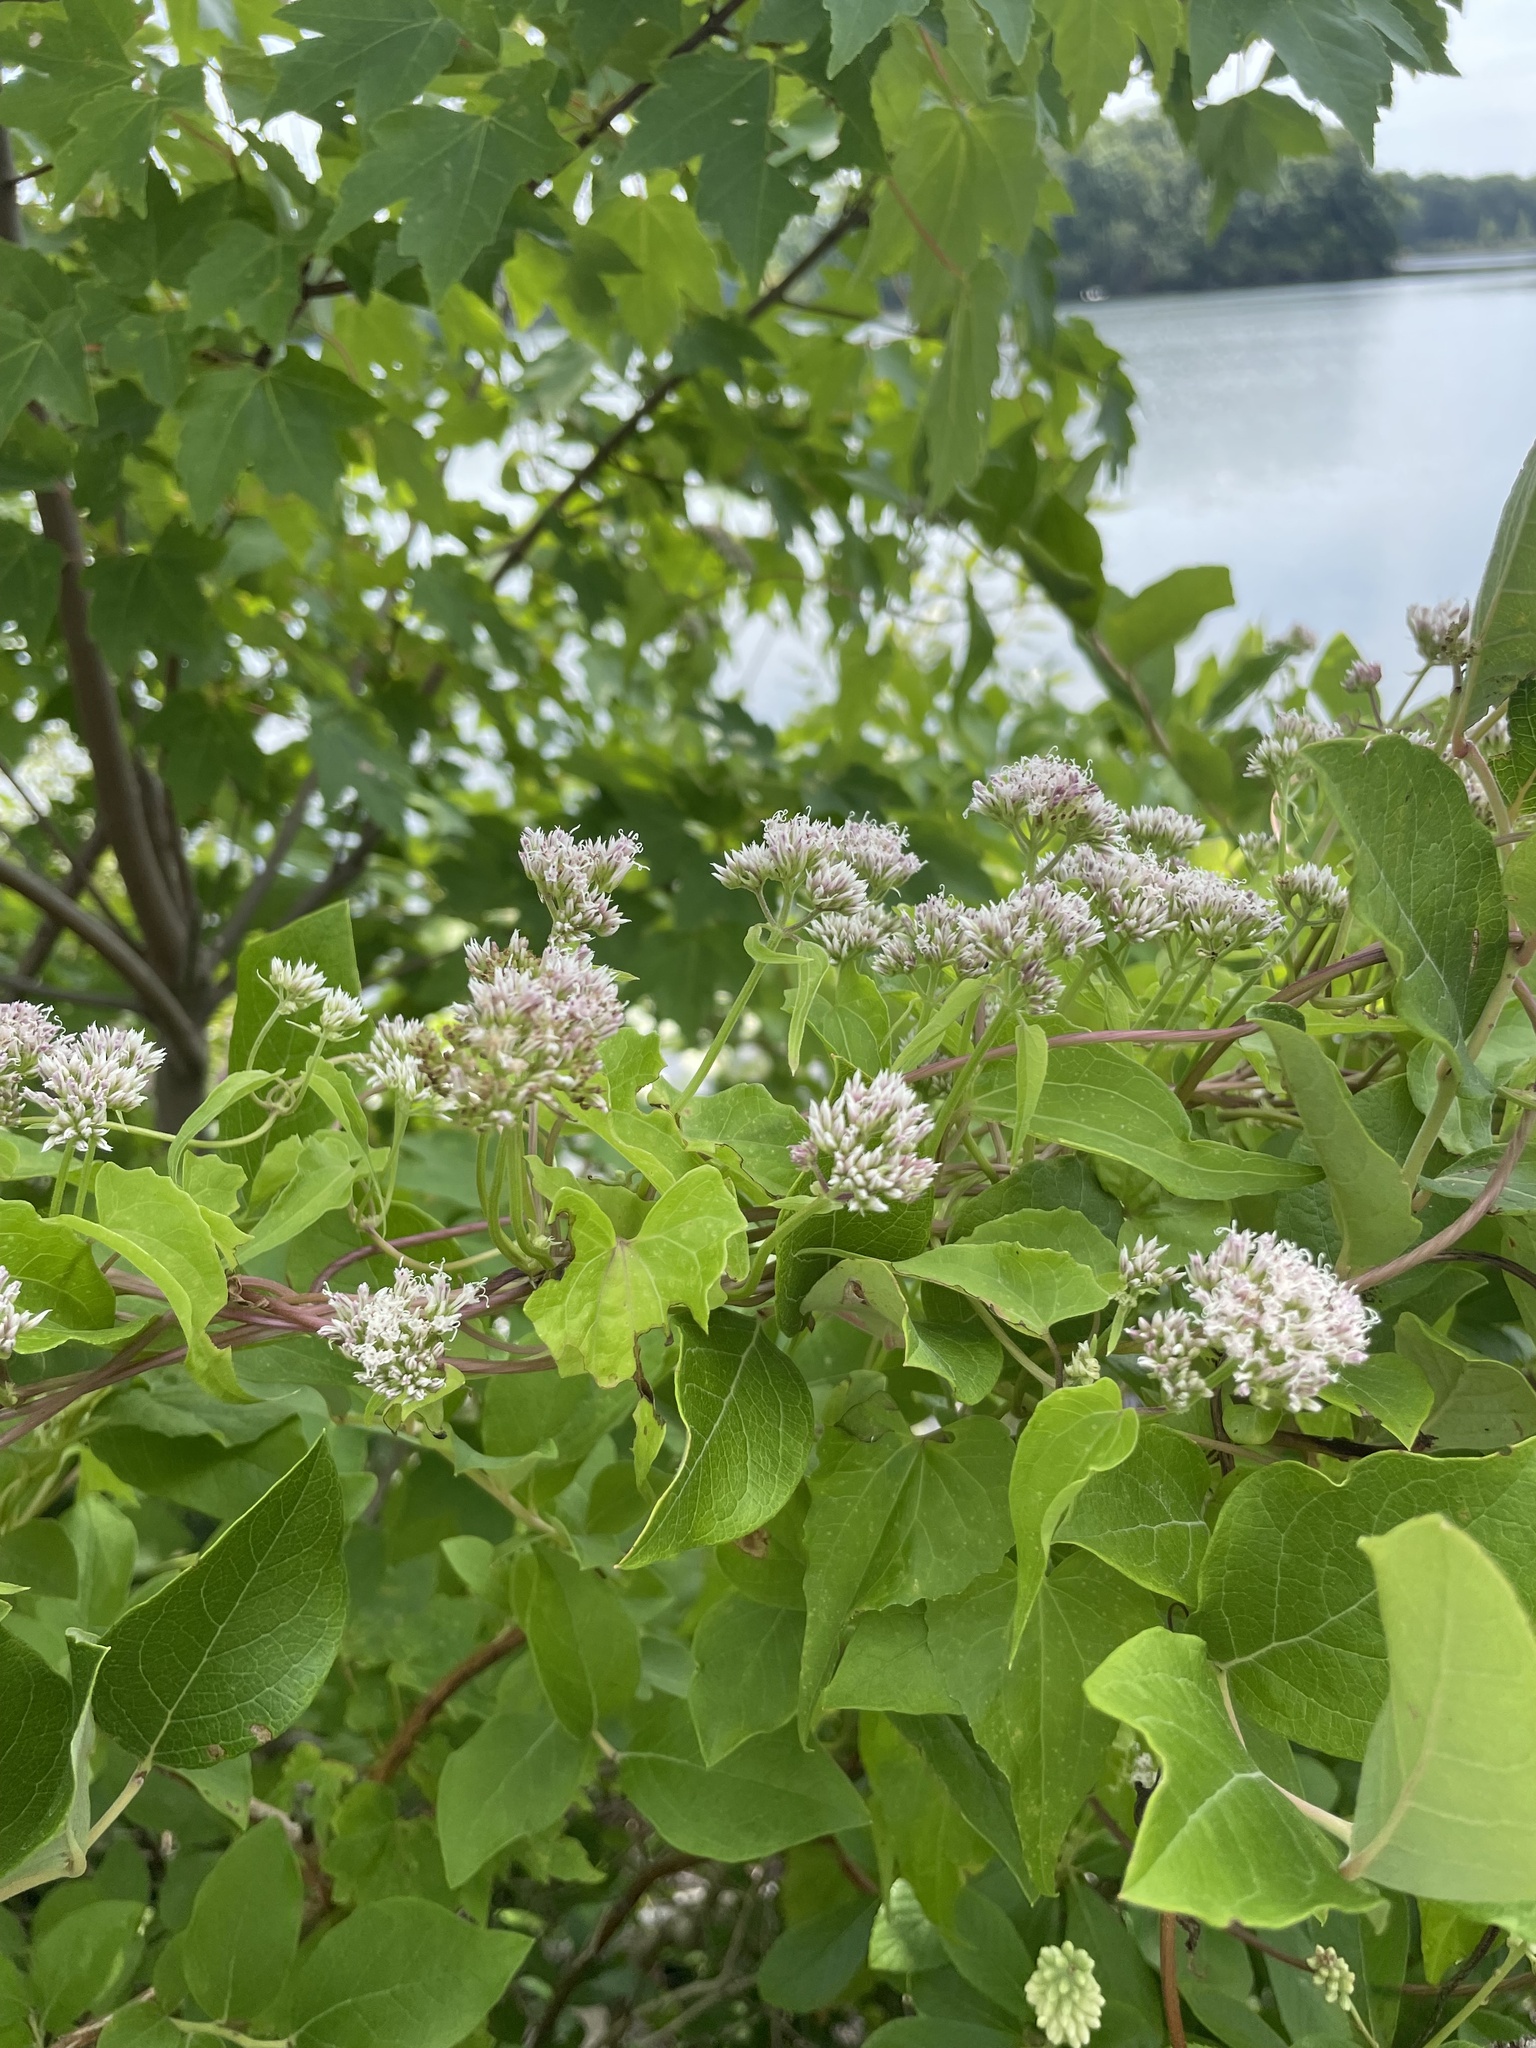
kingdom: Plantae
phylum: Tracheophyta
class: Magnoliopsida
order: Asterales
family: Asteraceae
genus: Mikania
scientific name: Mikania scandens
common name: Climbing hempvine
